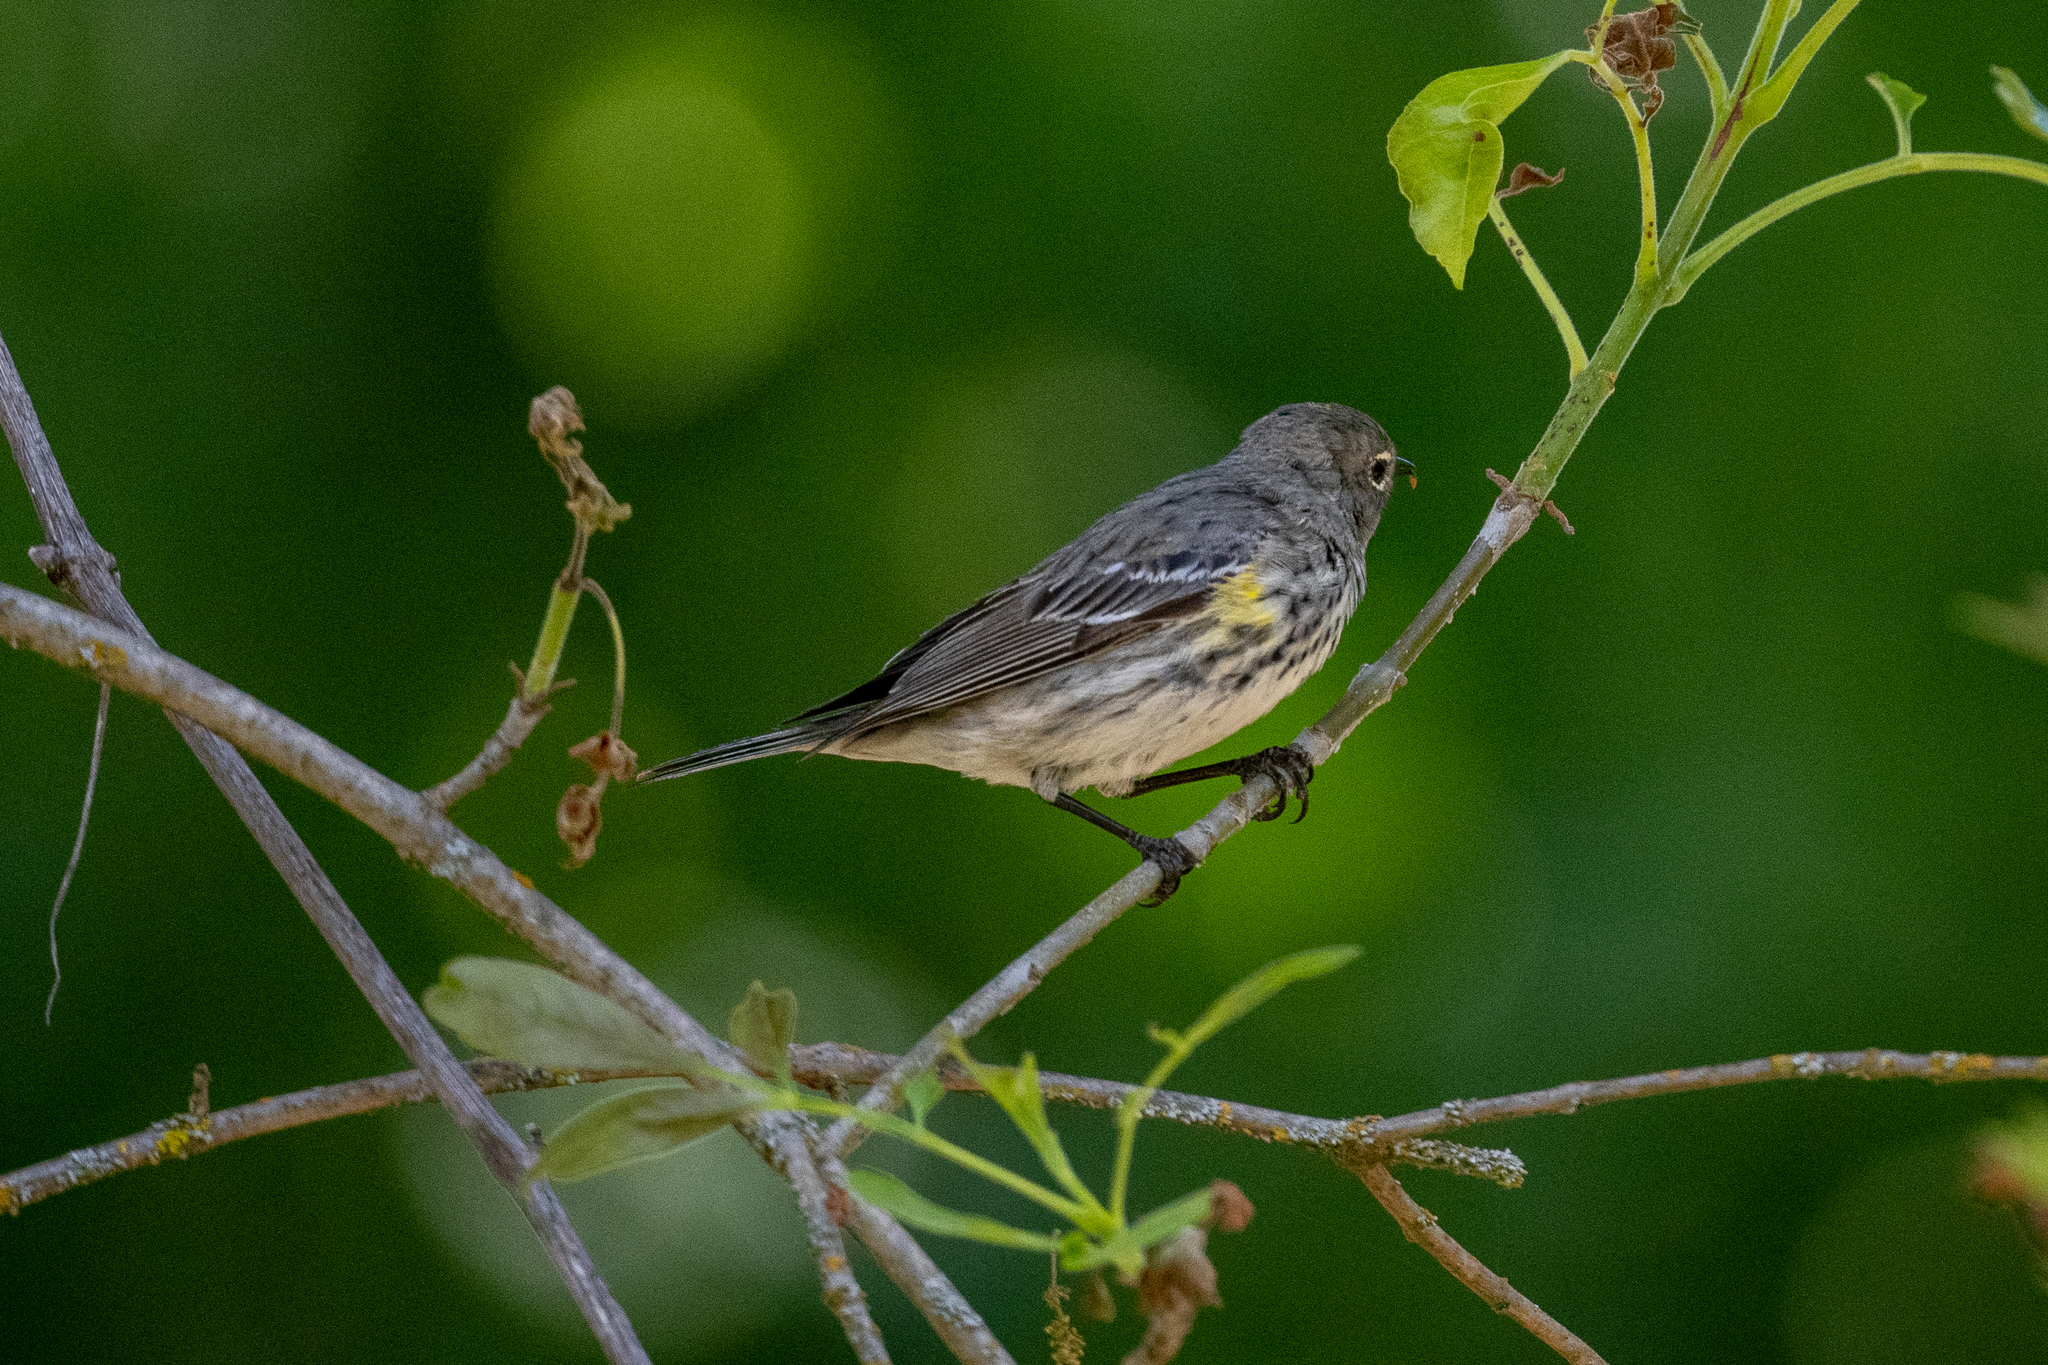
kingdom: Animalia
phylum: Chordata
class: Aves
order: Passeriformes
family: Parulidae
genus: Setophaga
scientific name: Setophaga coronata
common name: Myrtle warbler
